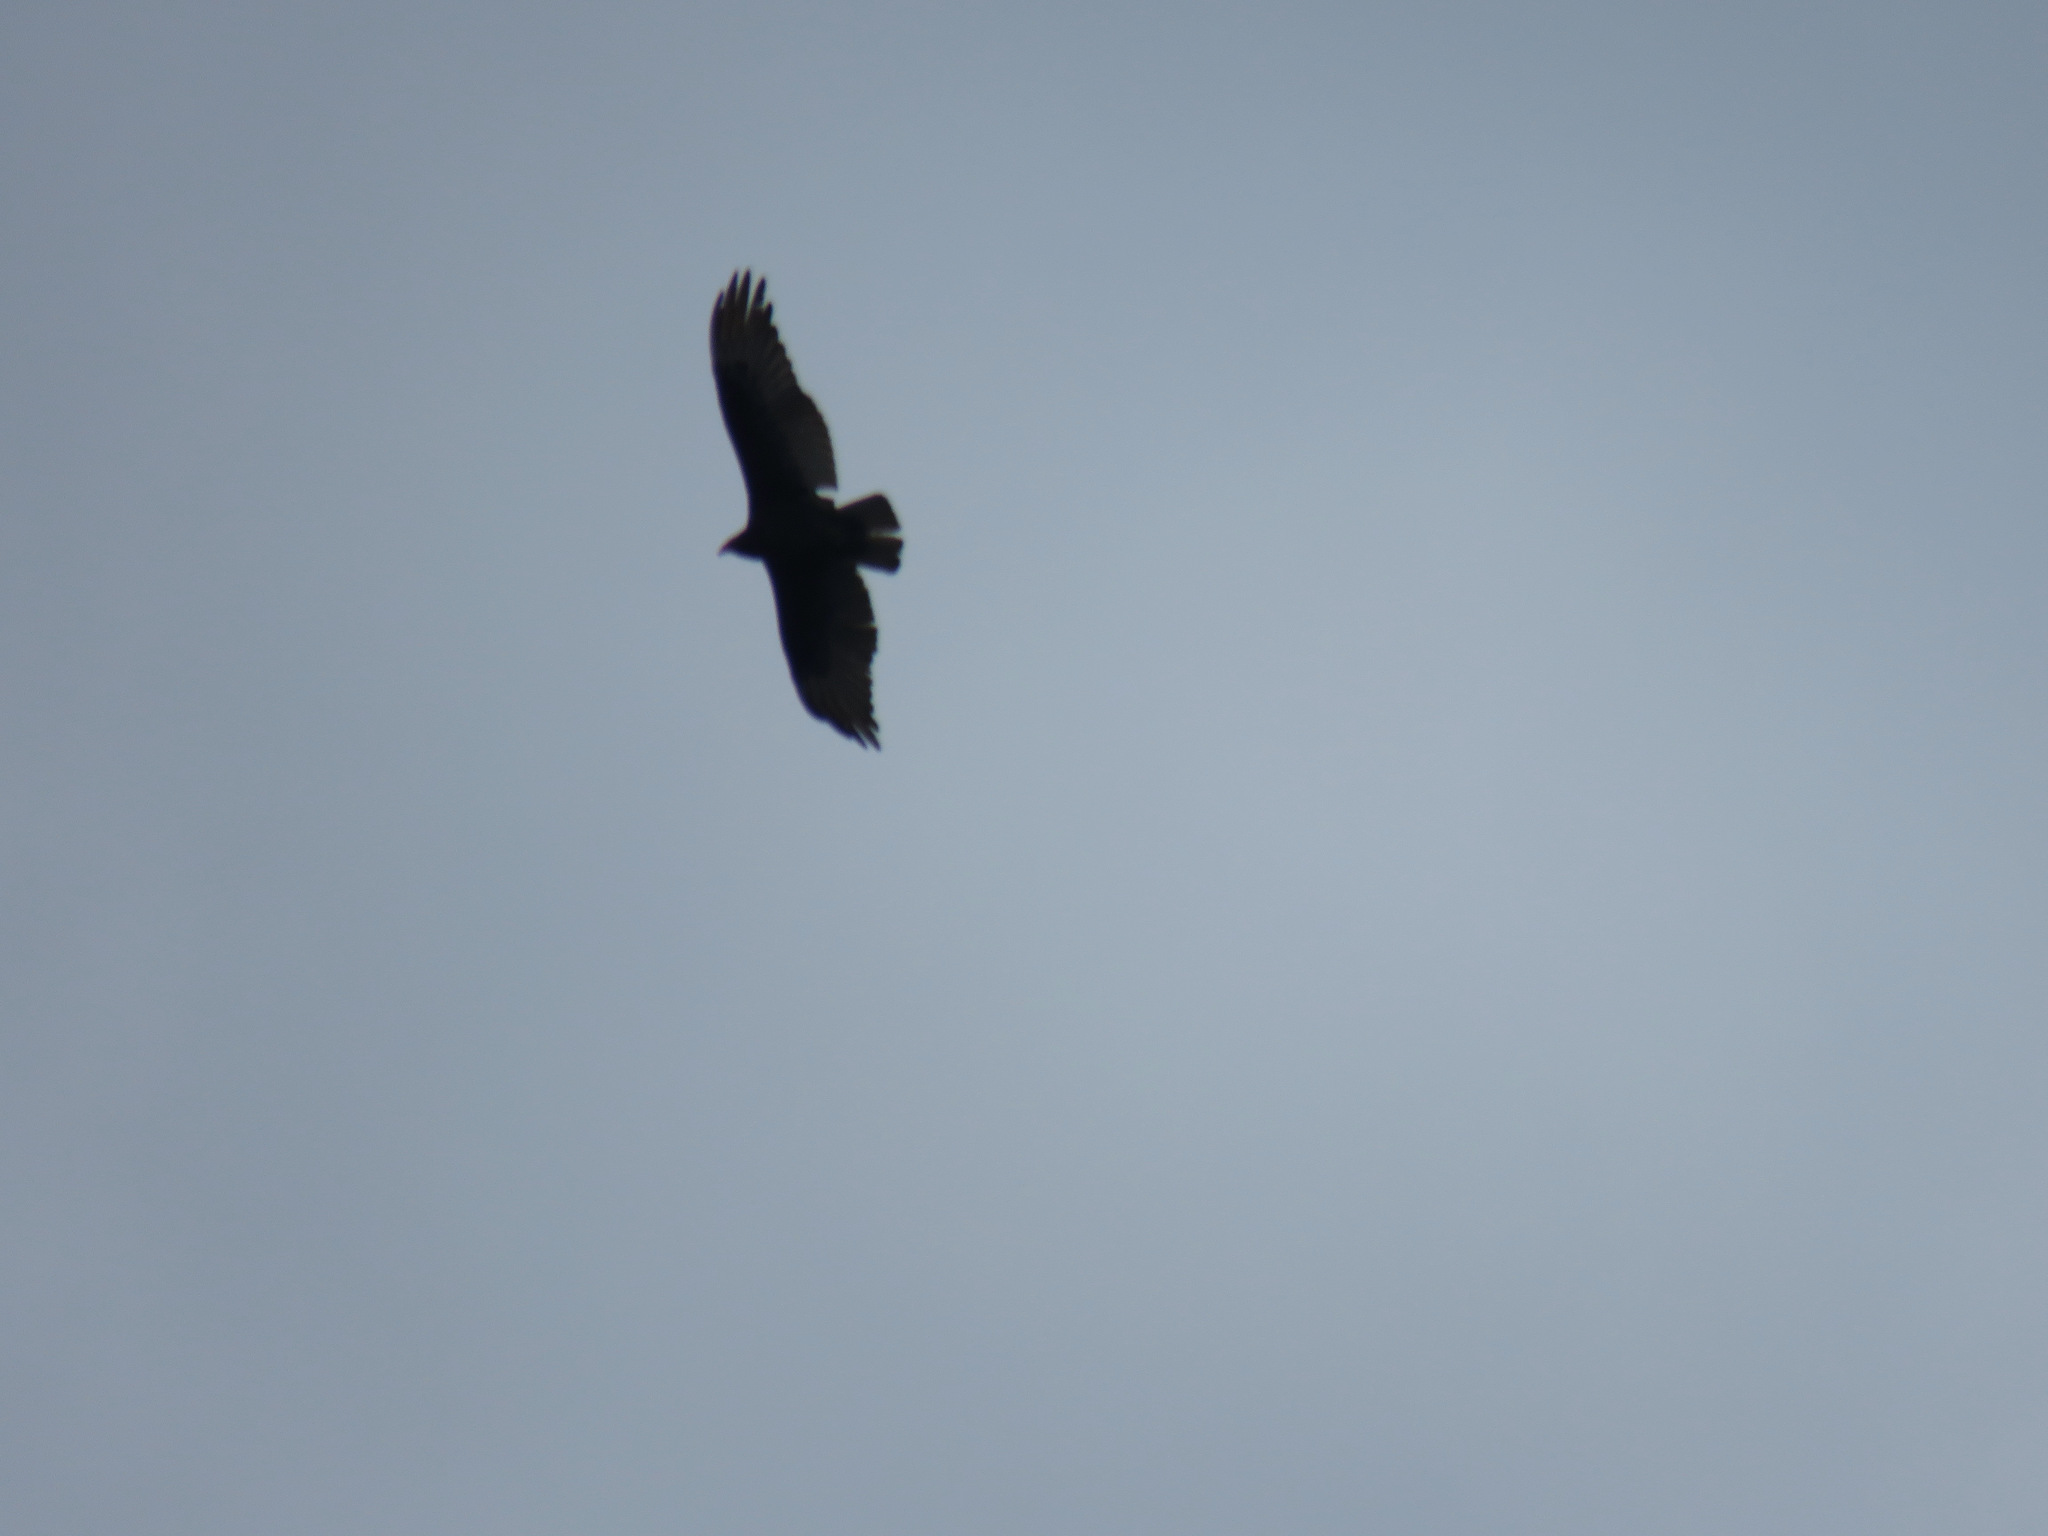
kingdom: Animalia
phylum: Chordata
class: Aves
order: Accipitriformes
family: Cathartidae
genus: Cathartes
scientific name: Cathartes aura
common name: Turkey vulture
